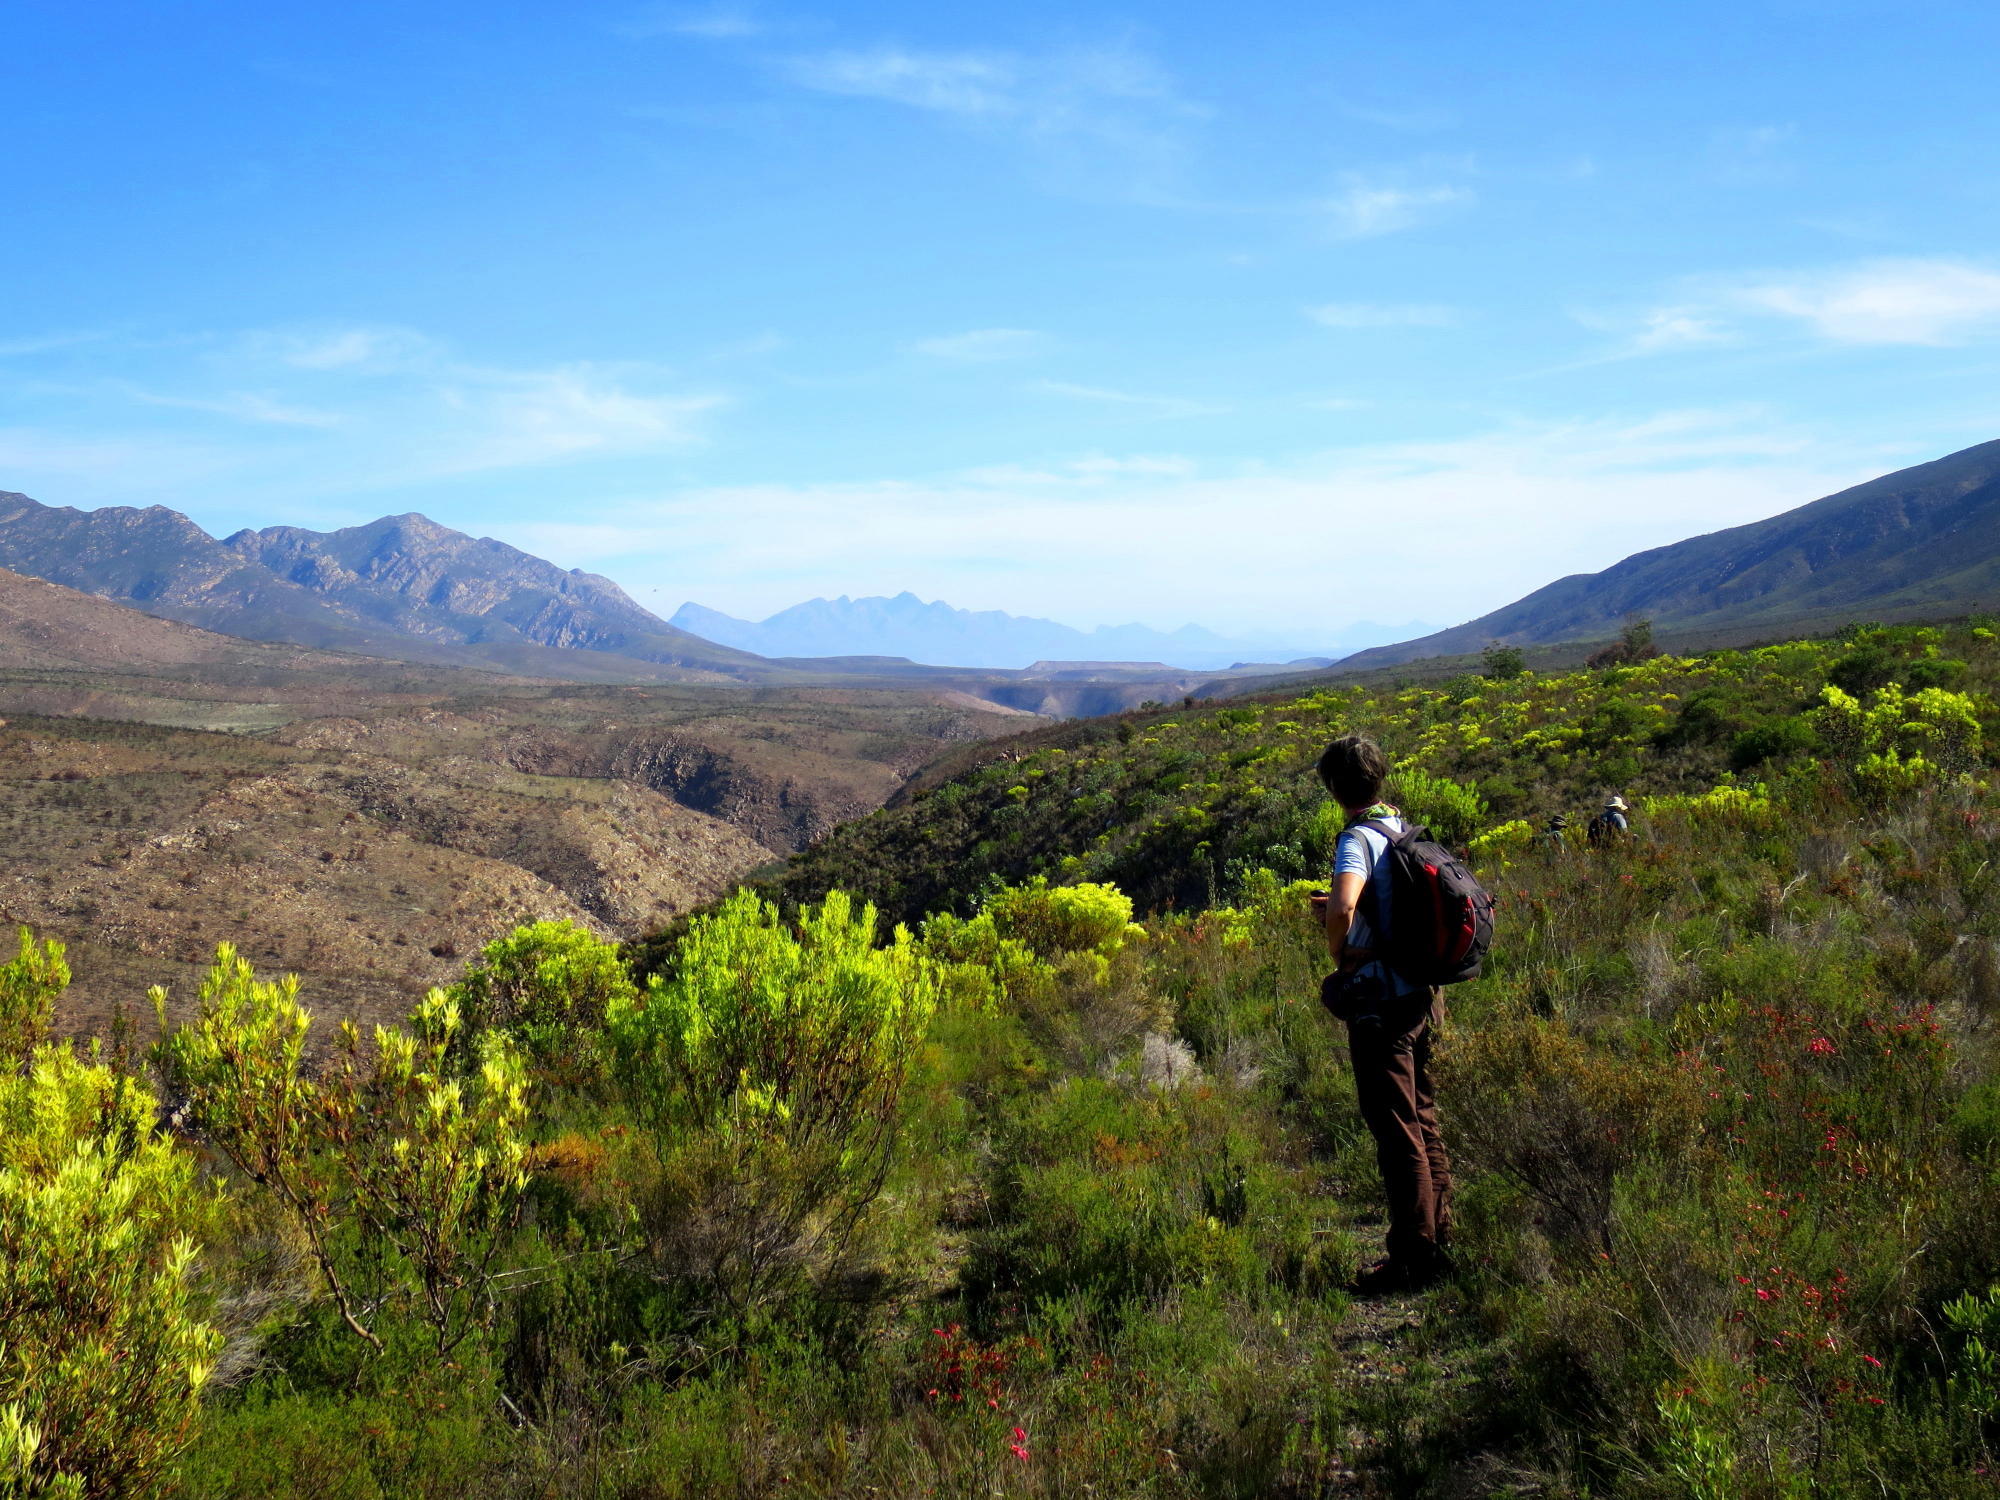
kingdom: Plantae
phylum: Tracheophyta
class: Magnoliopsida
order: Proteales
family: Proteaceae
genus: Leucadendron
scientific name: Leucadendron salignum
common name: Common sunshine conebush
